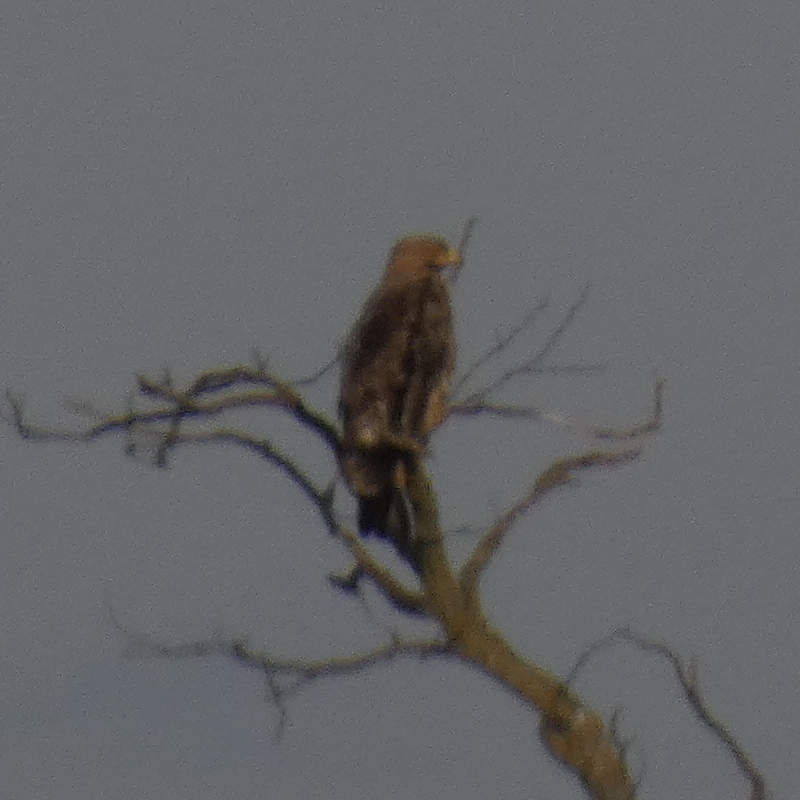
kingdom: Animalia
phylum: Chordata
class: Aves
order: Accipitriformes
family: Accipitridae
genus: Aquila
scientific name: Aquila heliaca
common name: Eastern imperial eagle
